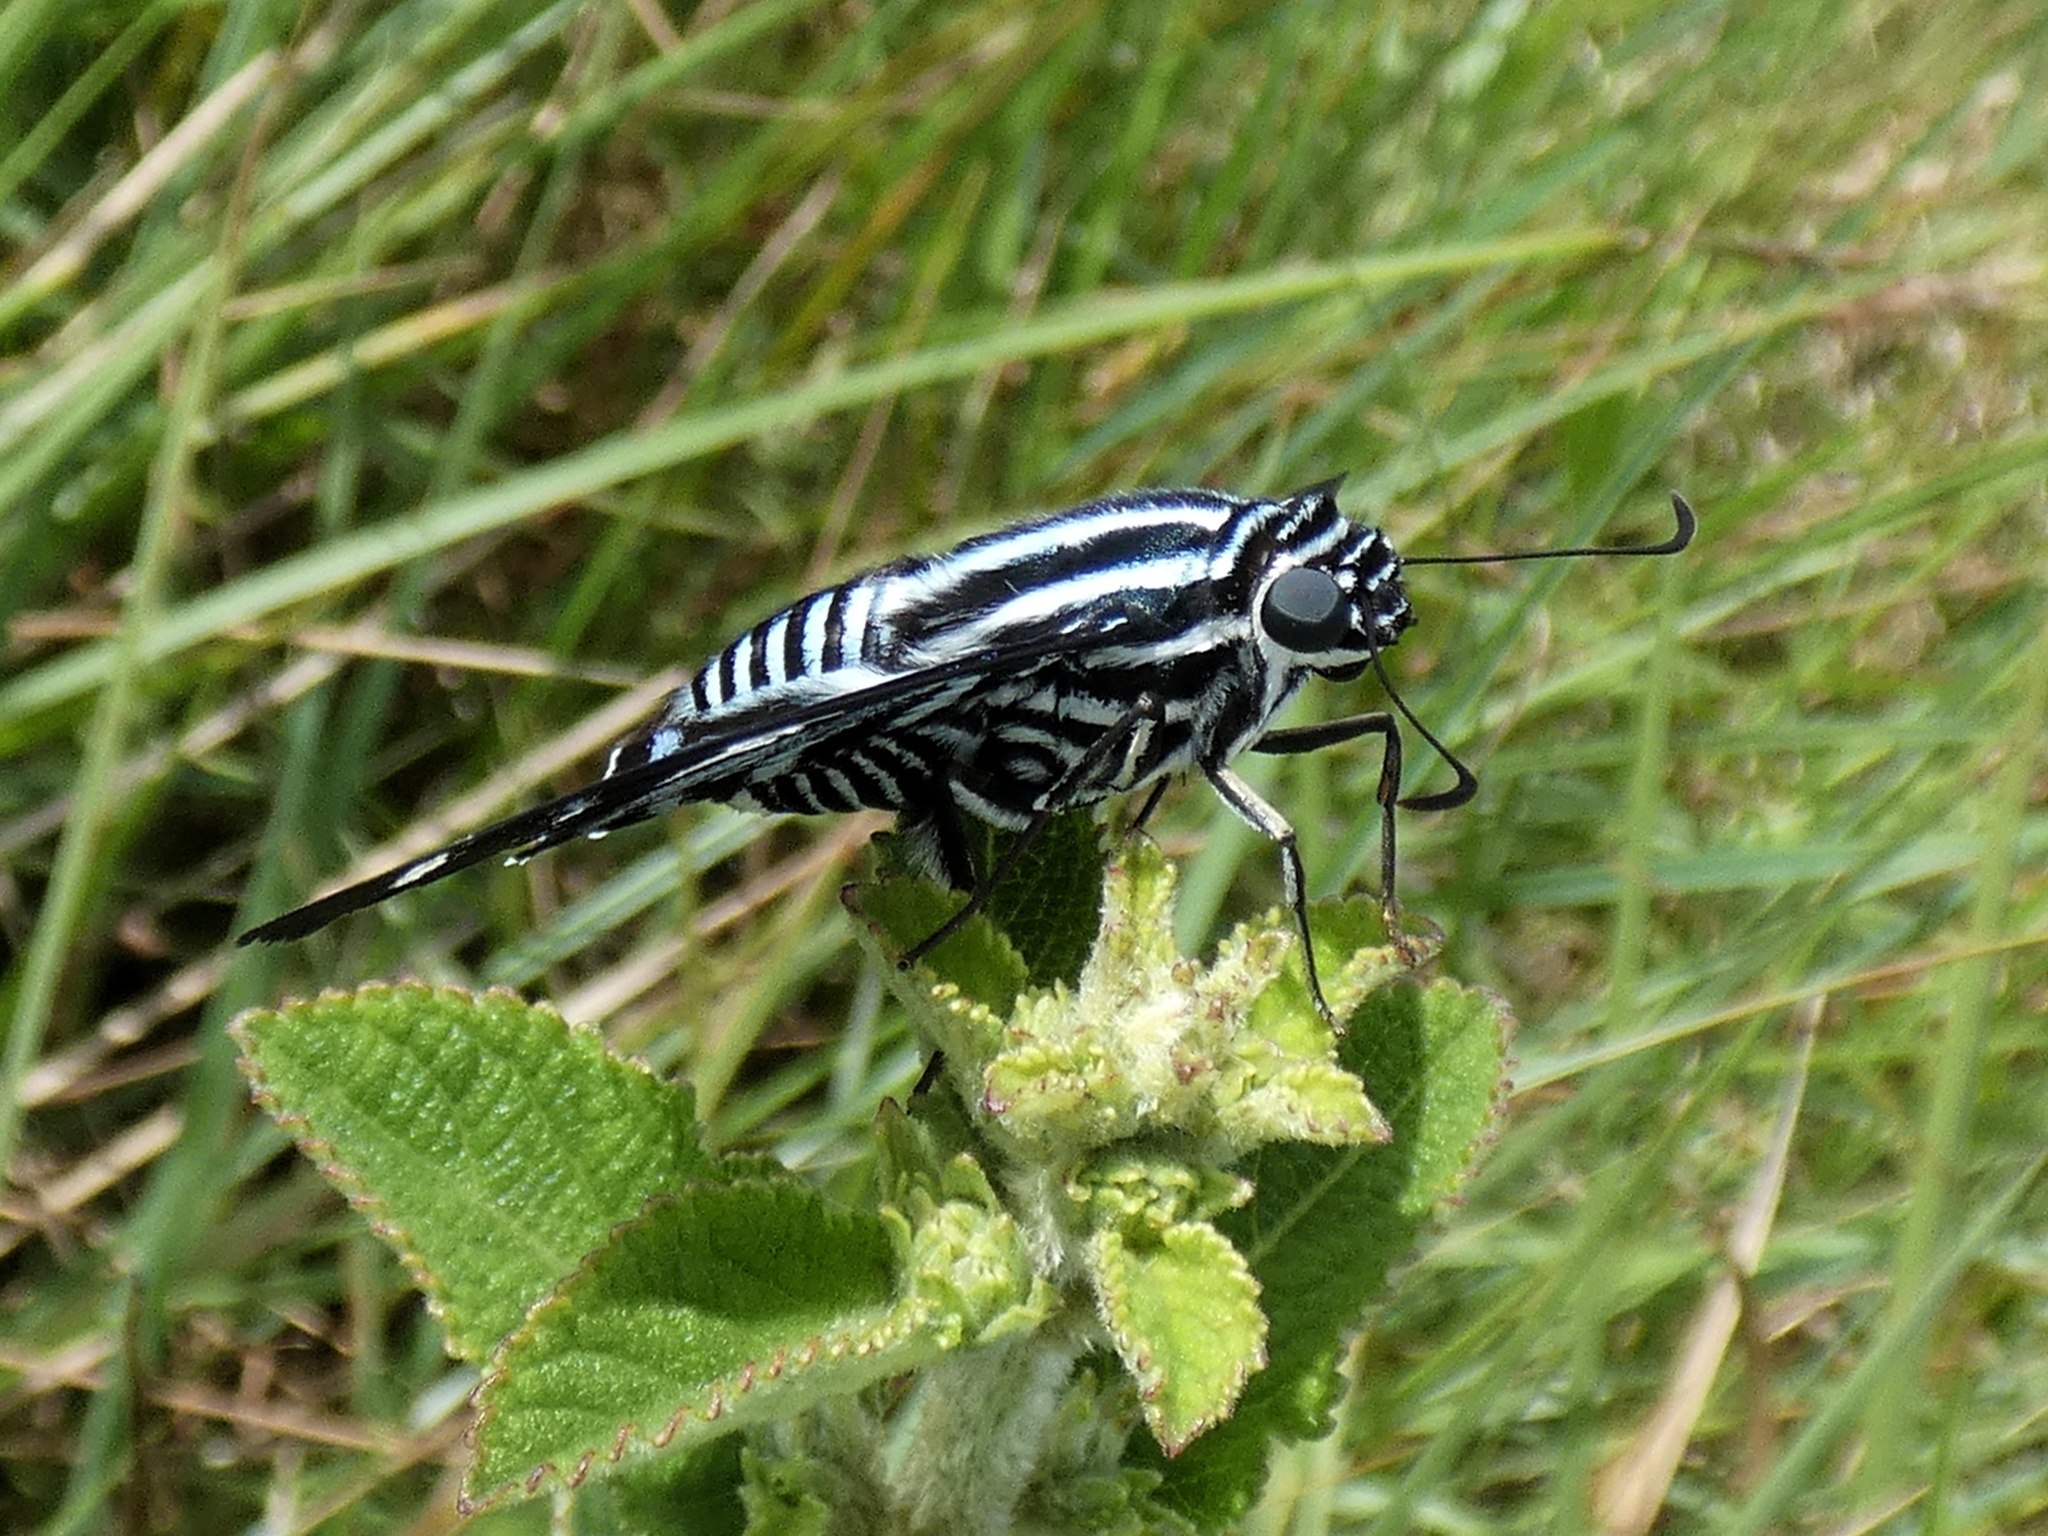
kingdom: Animalia
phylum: Arthropoda
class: Insecta
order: Lepidoptera
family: Hesperiidae
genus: Jemadia
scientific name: Jemadia pseudognetus
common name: Dot-collared firetip
